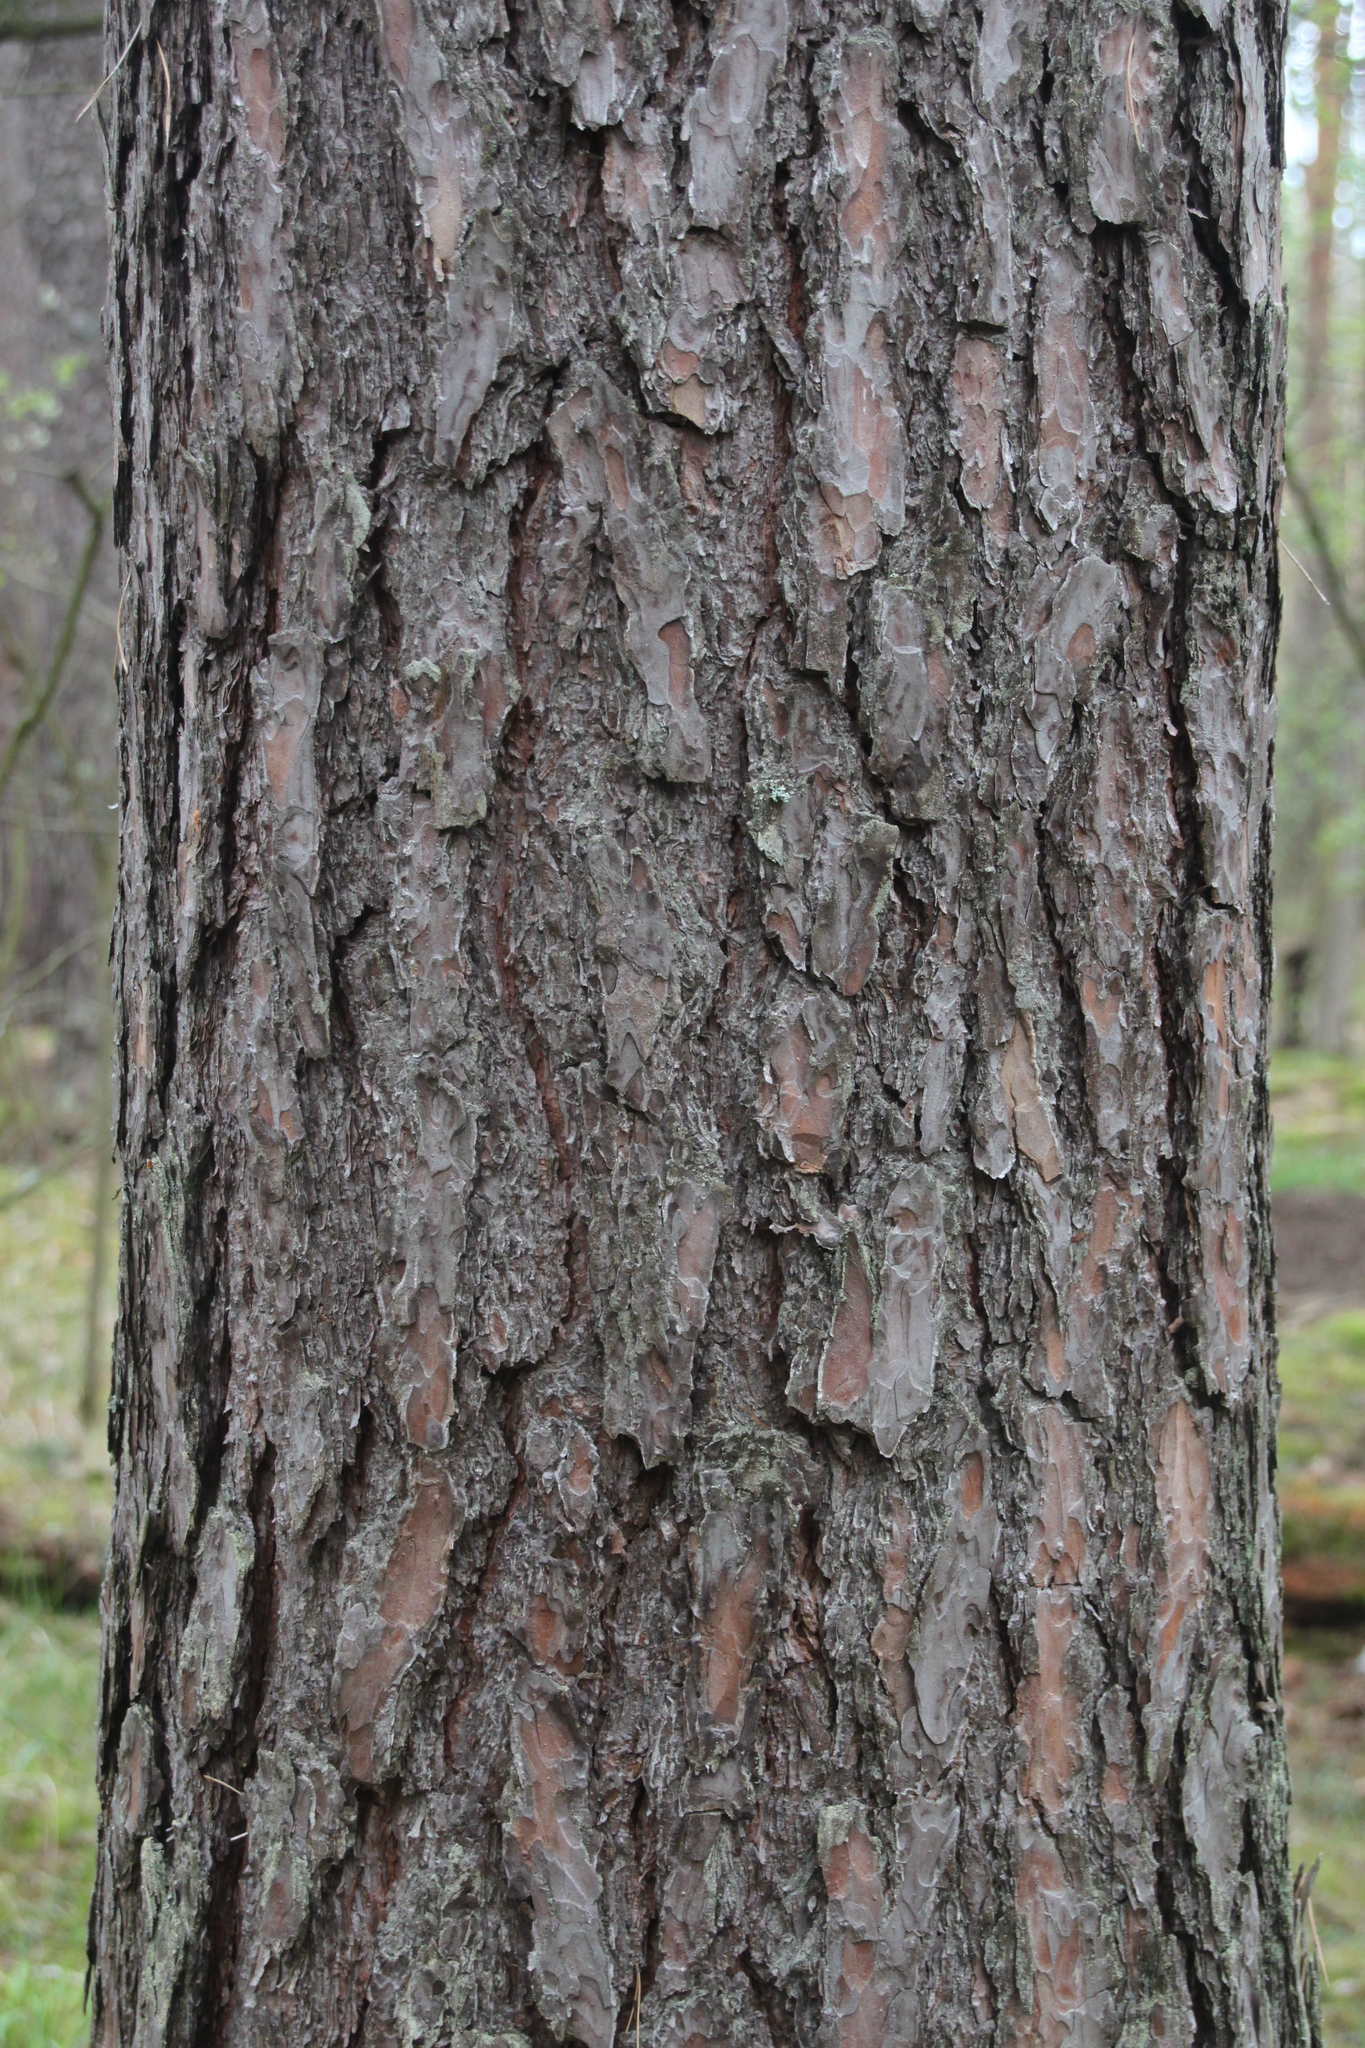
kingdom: Plantae
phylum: Tracheophyta
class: Pinopsida
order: Pinales
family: Pinaceae
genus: Pinus
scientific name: Pinus sylvestris
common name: Scots pine
